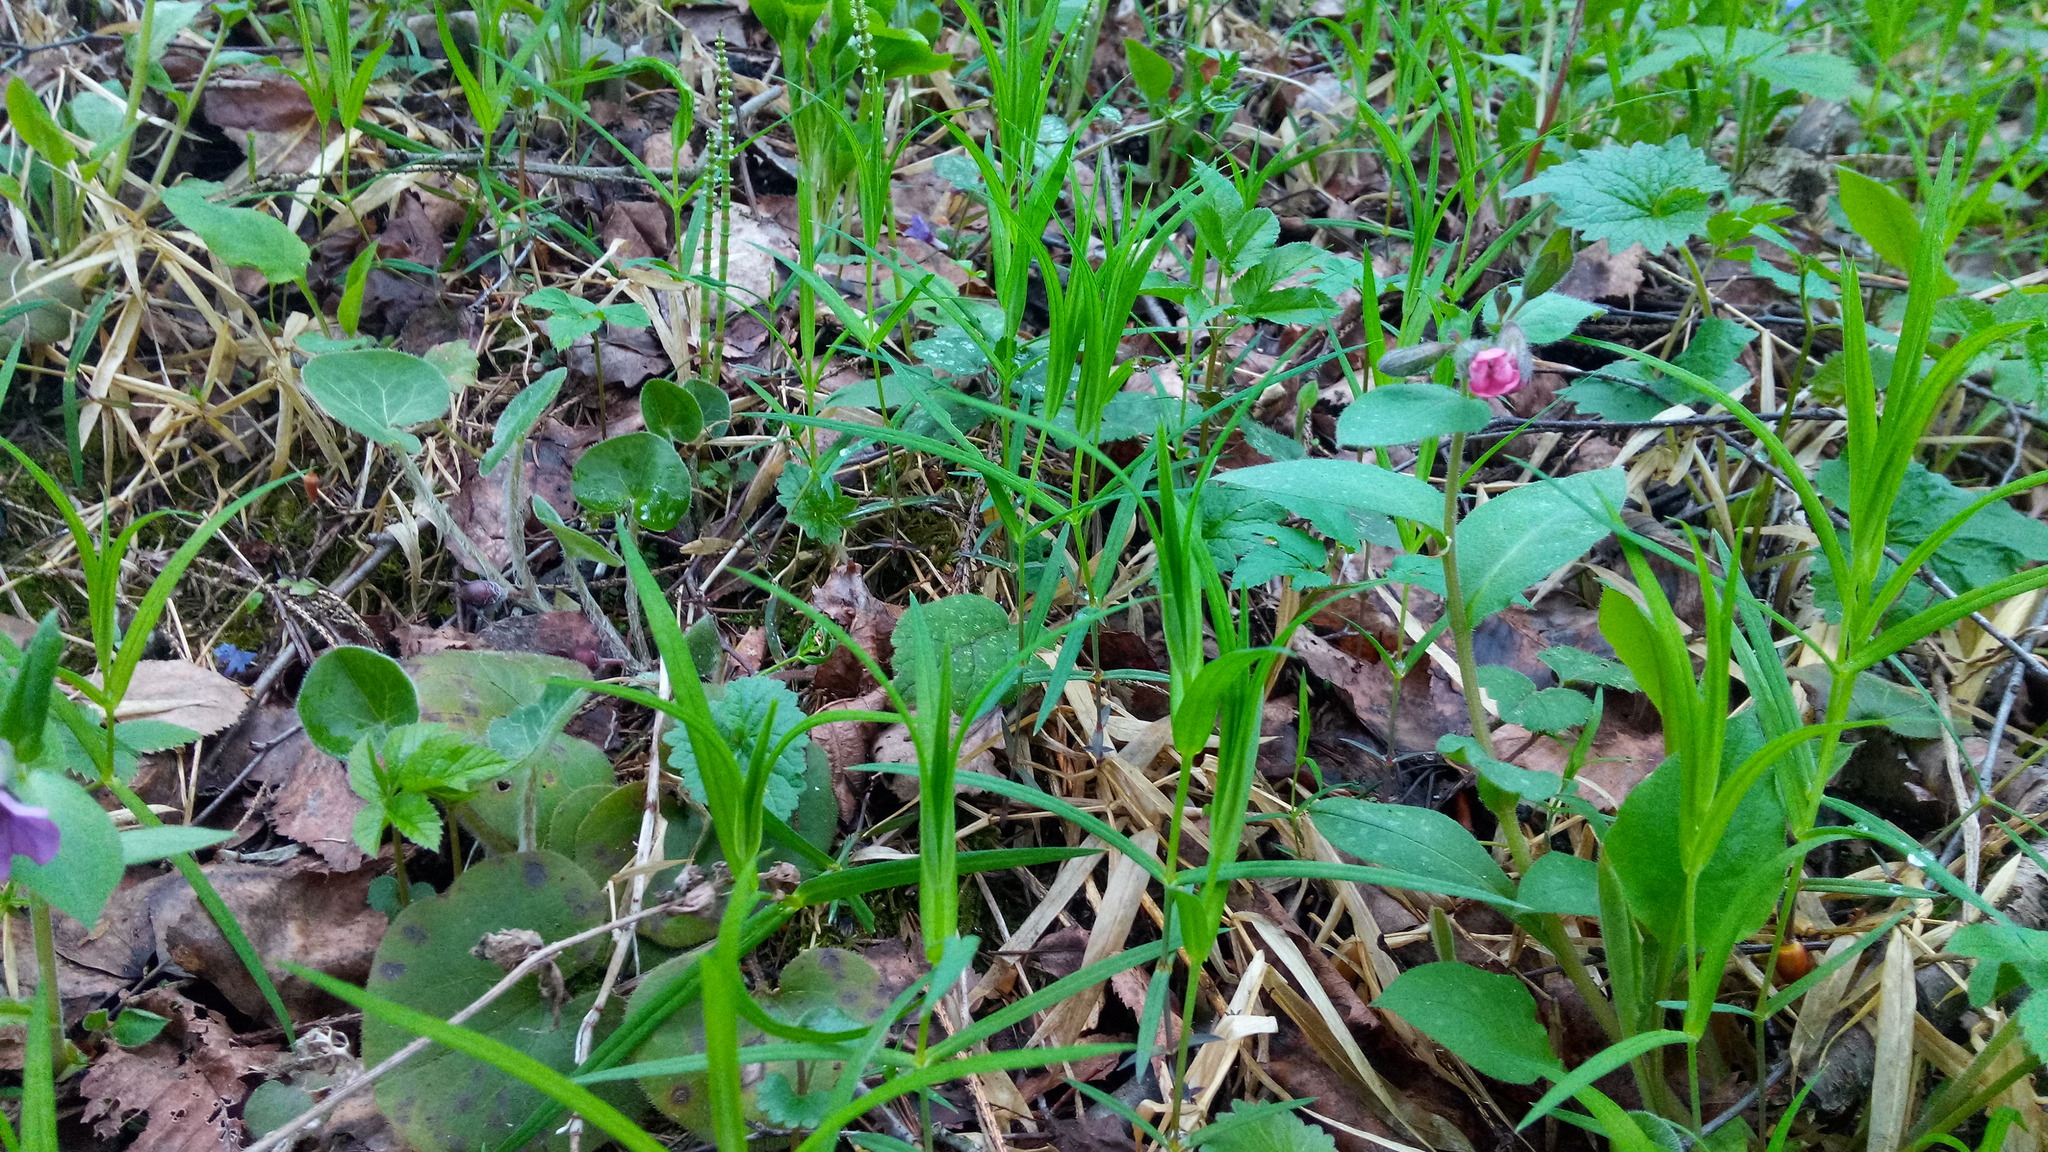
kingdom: Plantae
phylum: Tracheophyta
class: Magnoliopsida
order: Caryophyllales
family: Caryophyllaceae
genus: Rabelera
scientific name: Rabelera holostea
